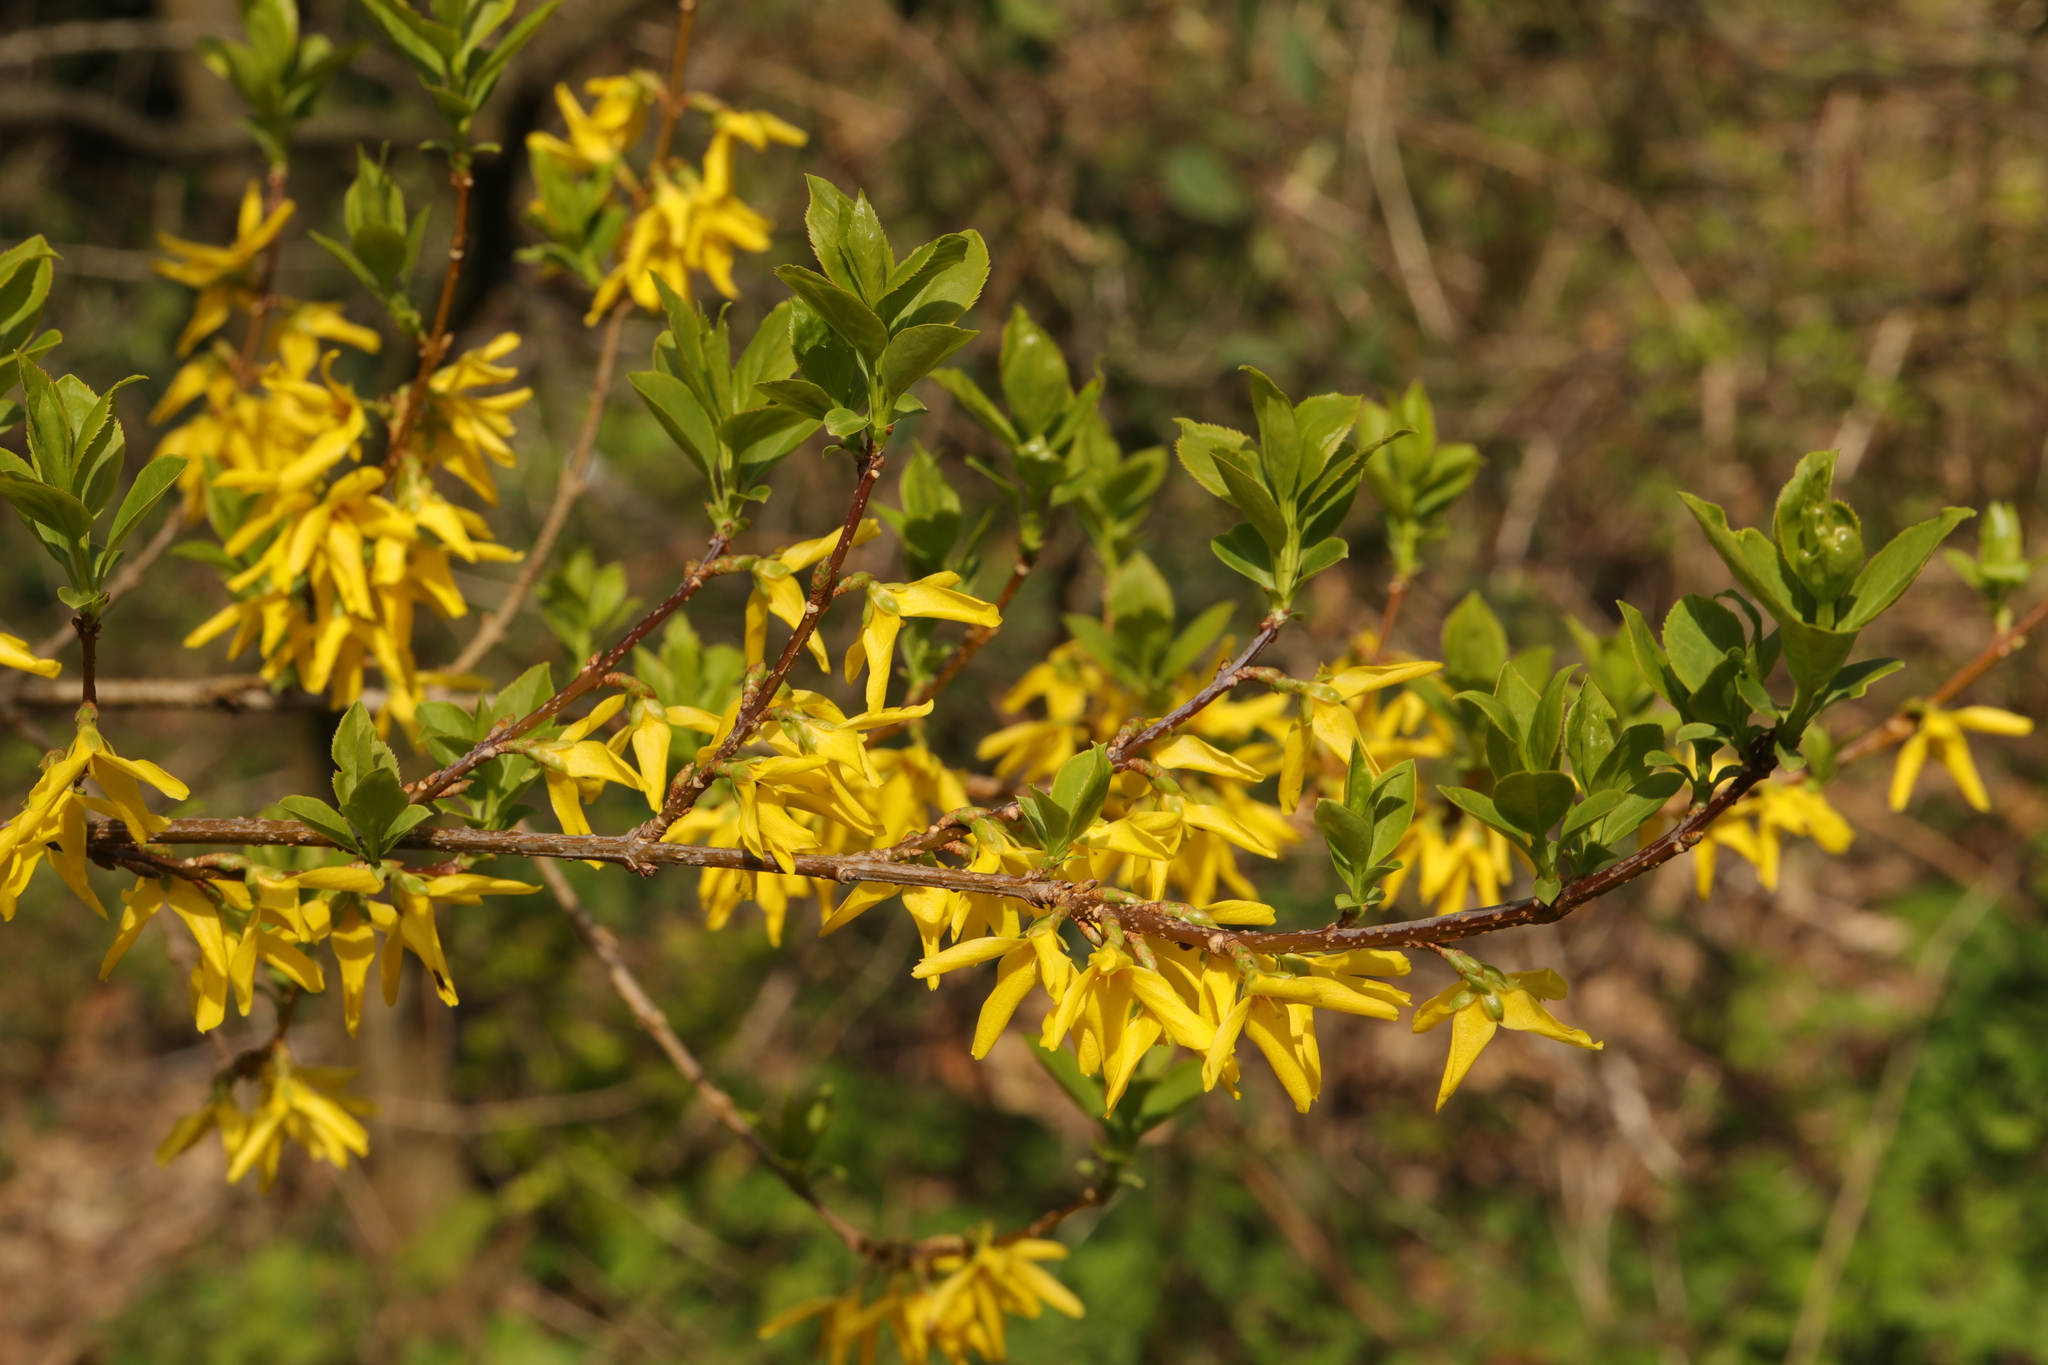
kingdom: Plantae
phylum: Tracheophyta
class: Magnoliopsida
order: Lamiales
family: Oleaceae
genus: Forsythia
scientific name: Forsythia intermedia
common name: Forsythia
